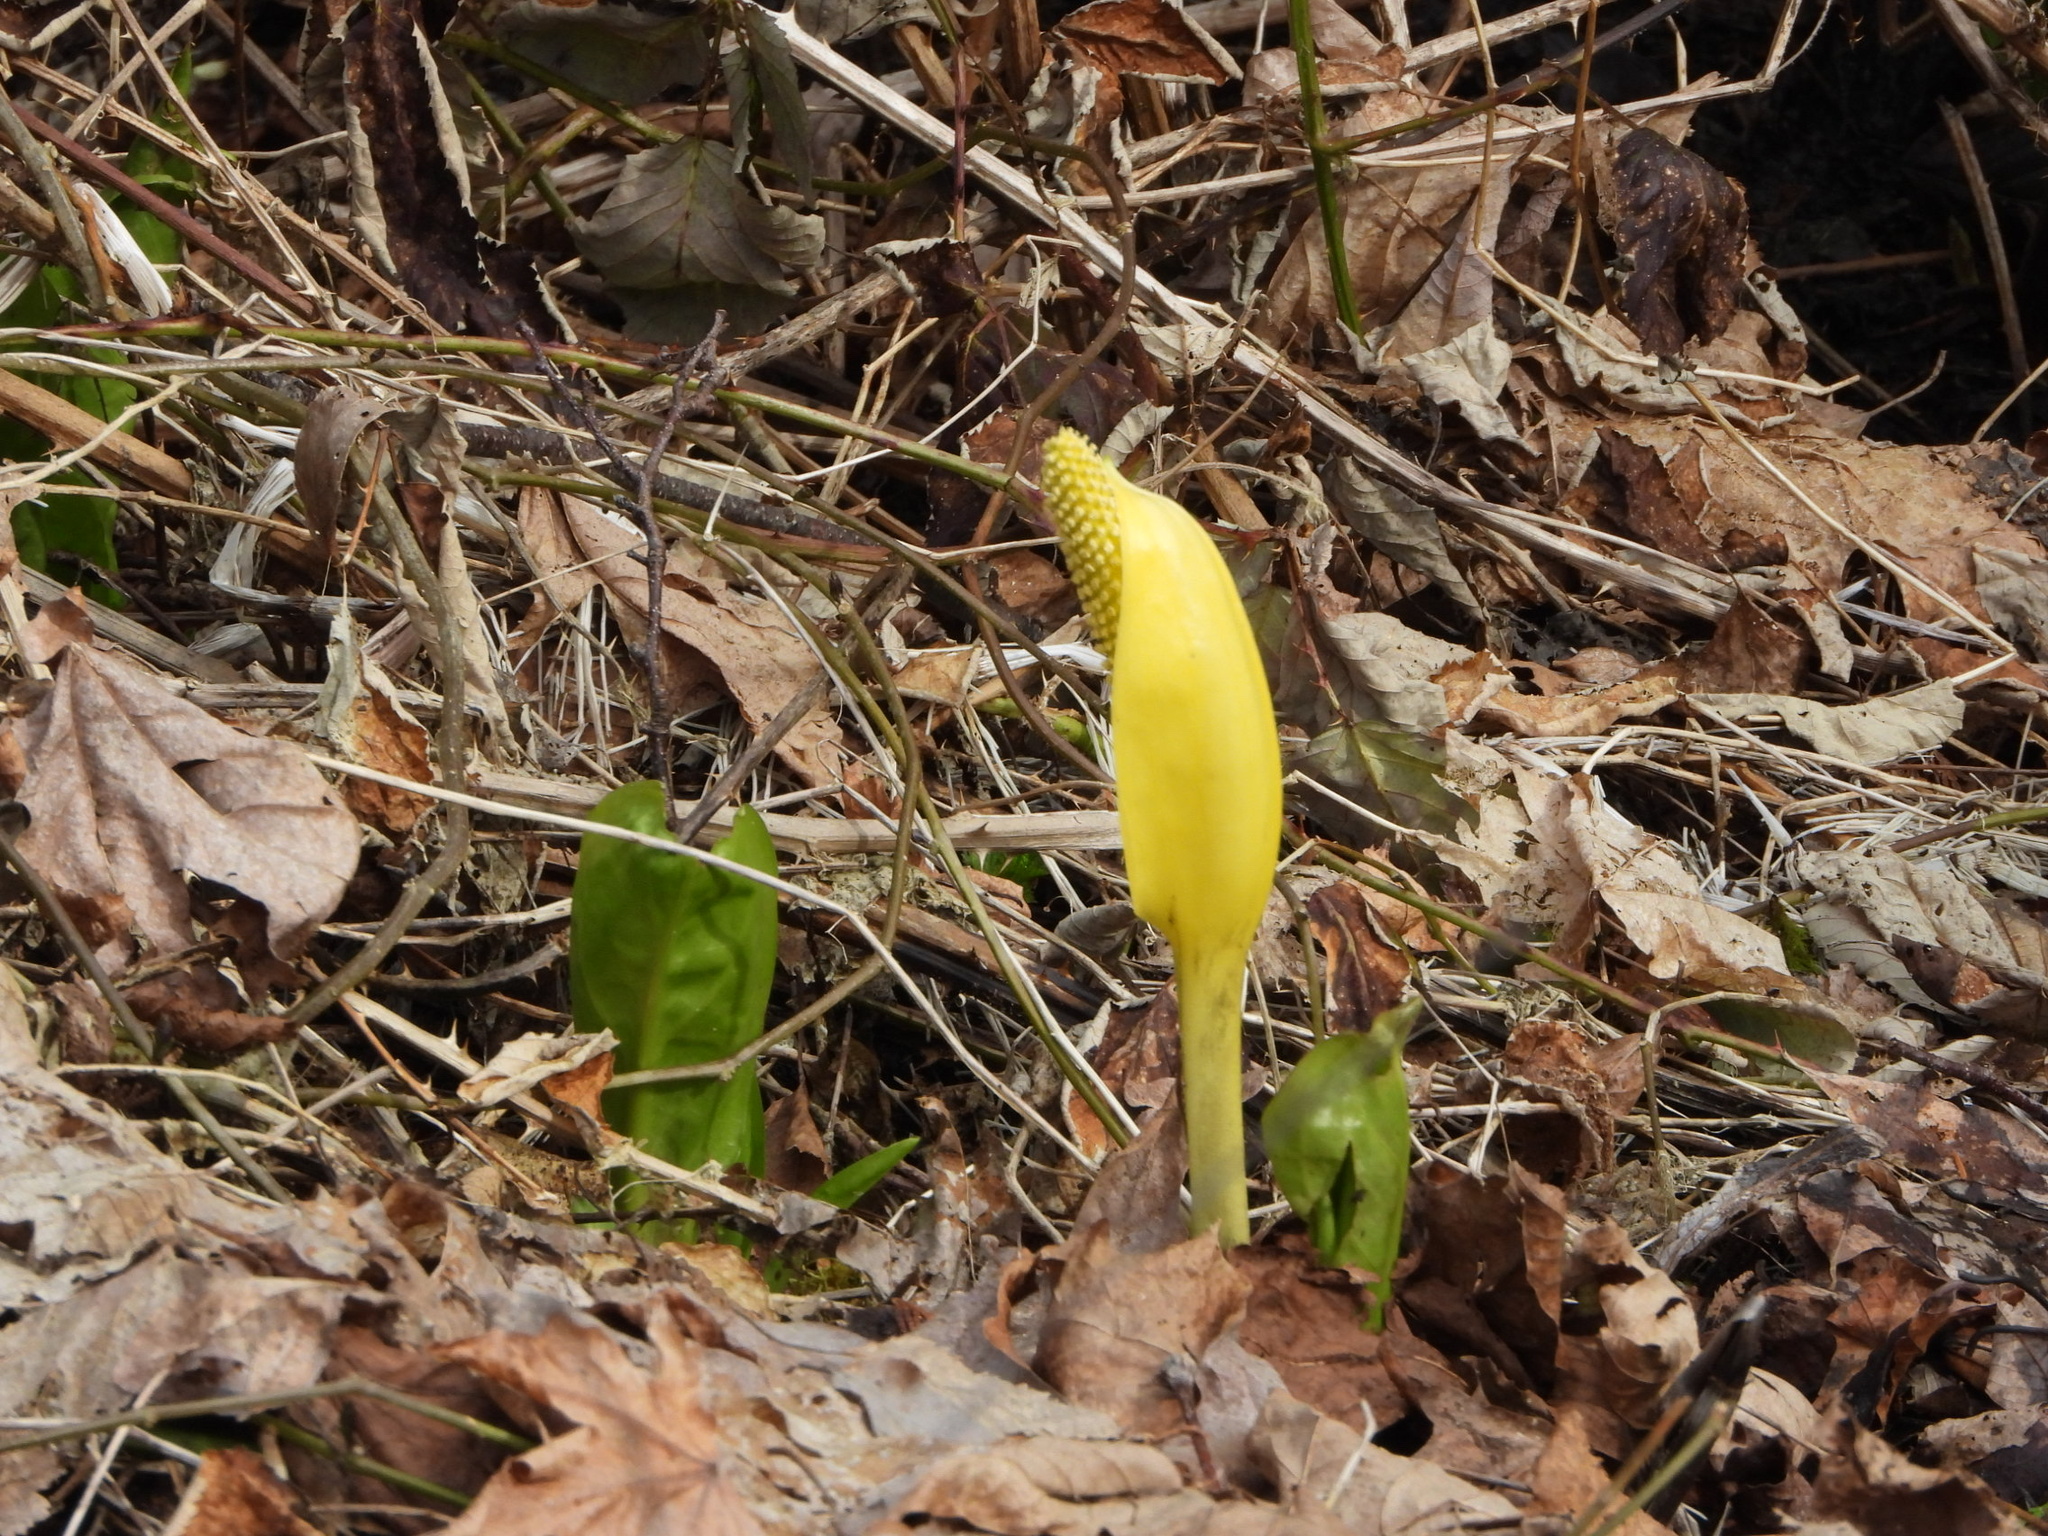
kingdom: Plantae
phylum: Tracheophyta
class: Liliopsida
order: Alismatales
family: Araceae
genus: Lysichiton
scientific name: Lysichiton americanus
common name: American skunk cabbage
